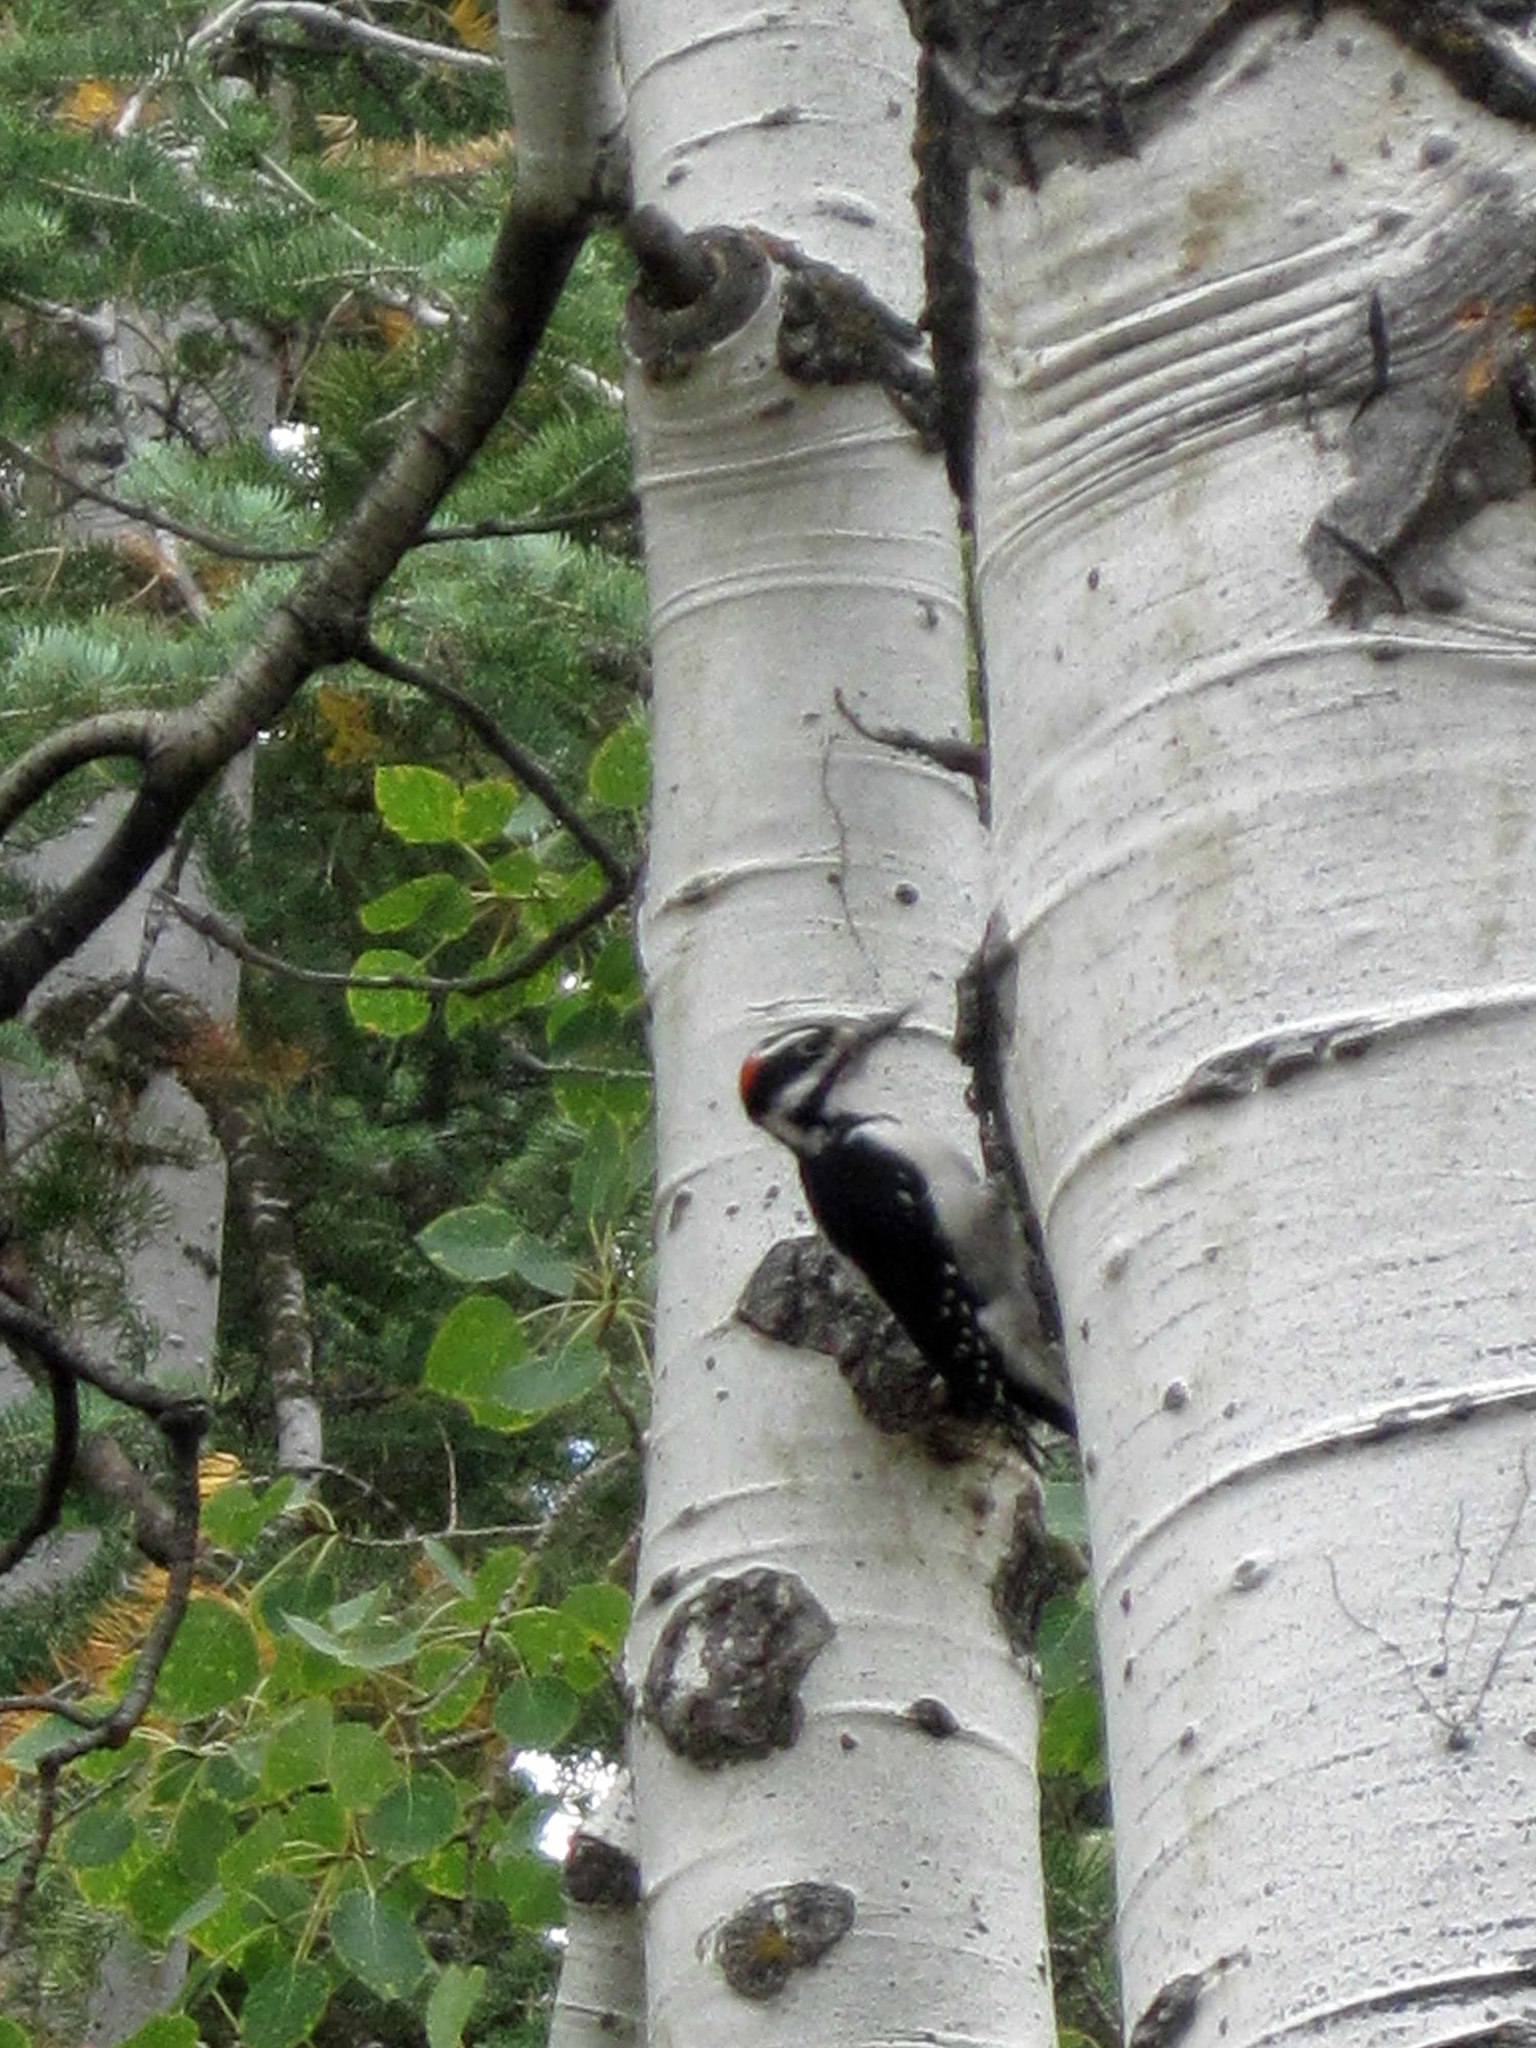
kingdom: Animalia
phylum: Chordata
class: Aves
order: Piciformes
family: Picidae
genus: Leuconotopicus
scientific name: Leuconotopicus villosus
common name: Hairy woodpecker
